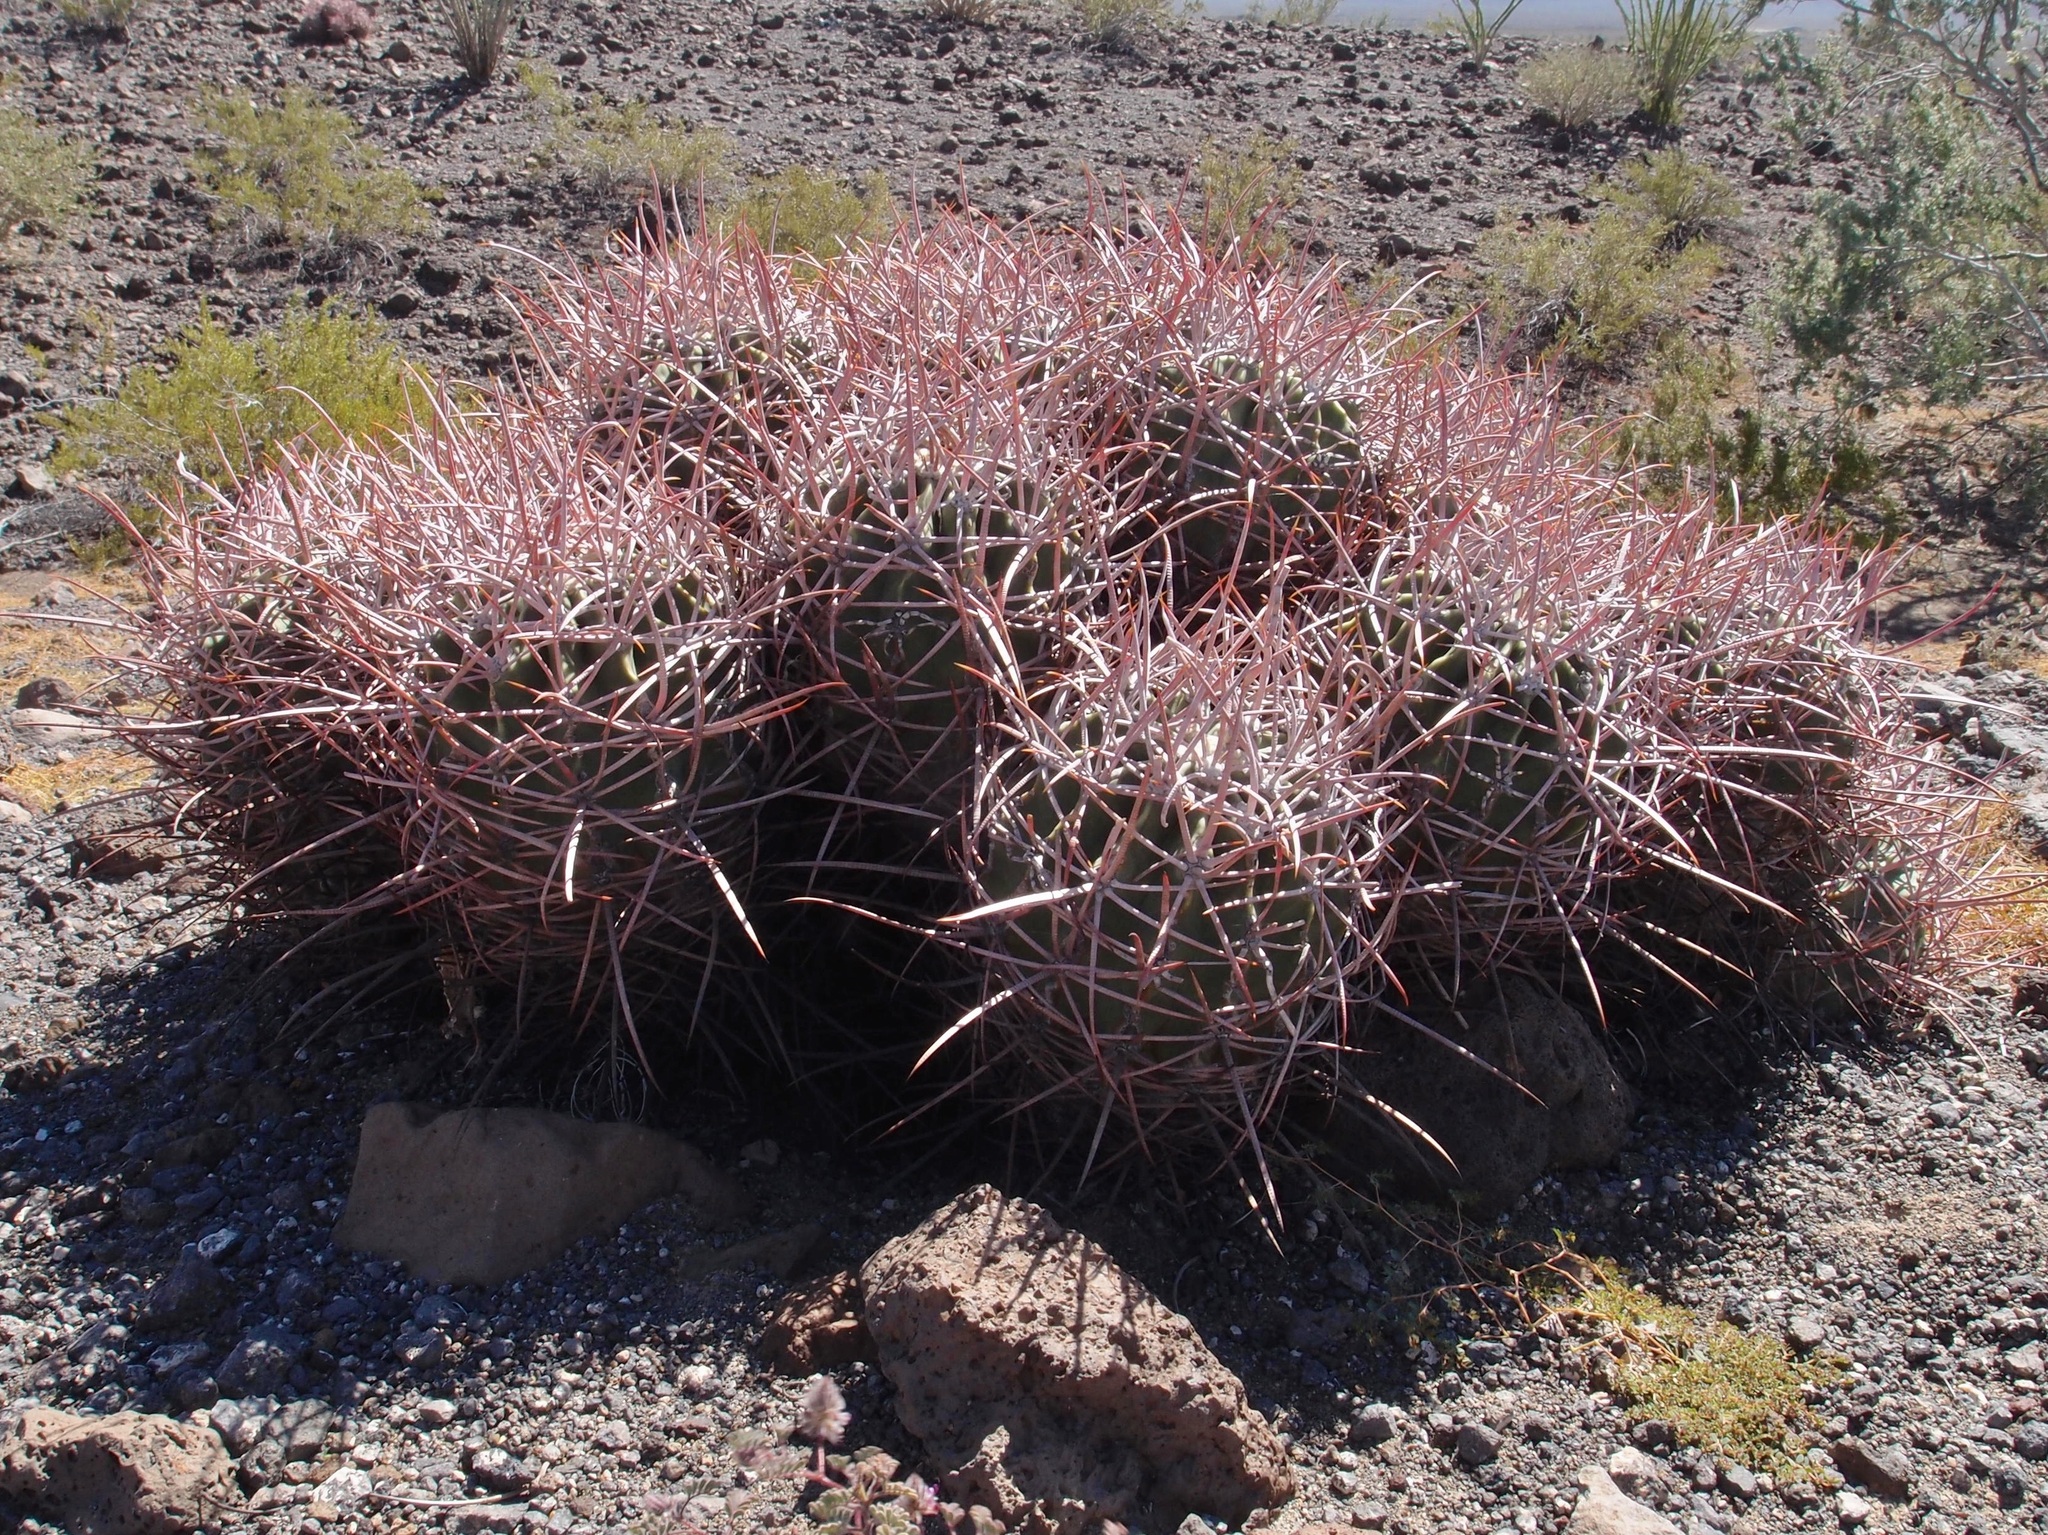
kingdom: Plantae
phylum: Tracheophyta
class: Magnoliopsida
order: Caryophyllales
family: Cactaceae
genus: Echinocactus
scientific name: Echinocactus polycephalus
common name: Cottontop cactus
